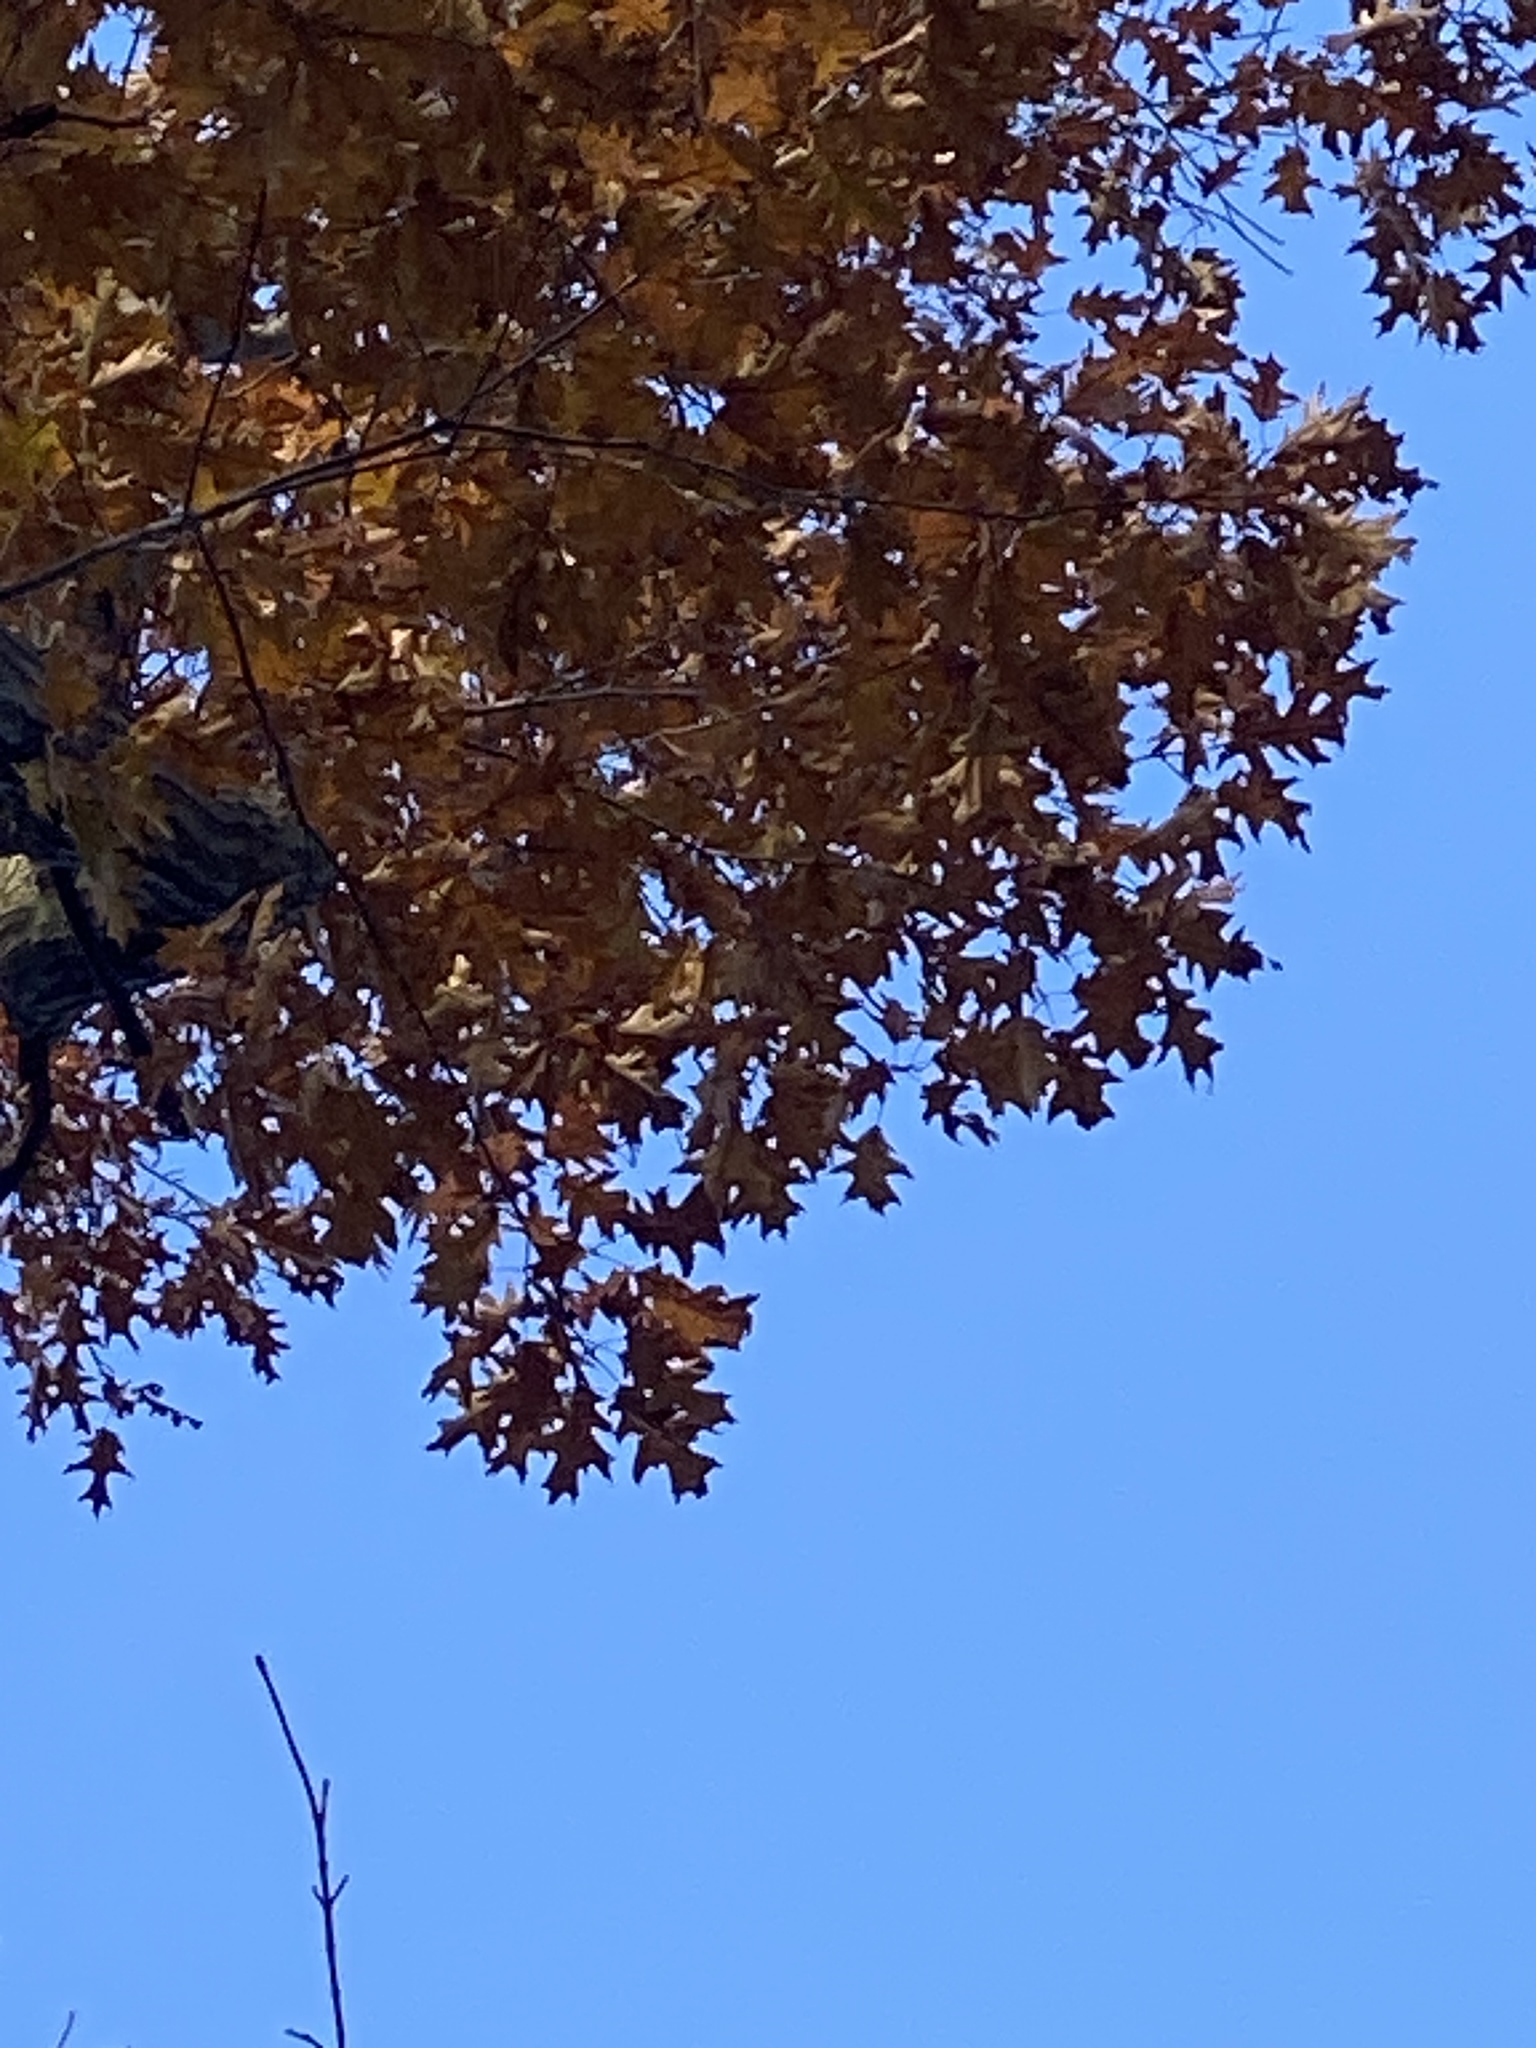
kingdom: Plantae
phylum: Tracheophyta
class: Magnoliopsida
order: Fagales
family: Fagaceae
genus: Quercus
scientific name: Quercus rubra
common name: Red oak
